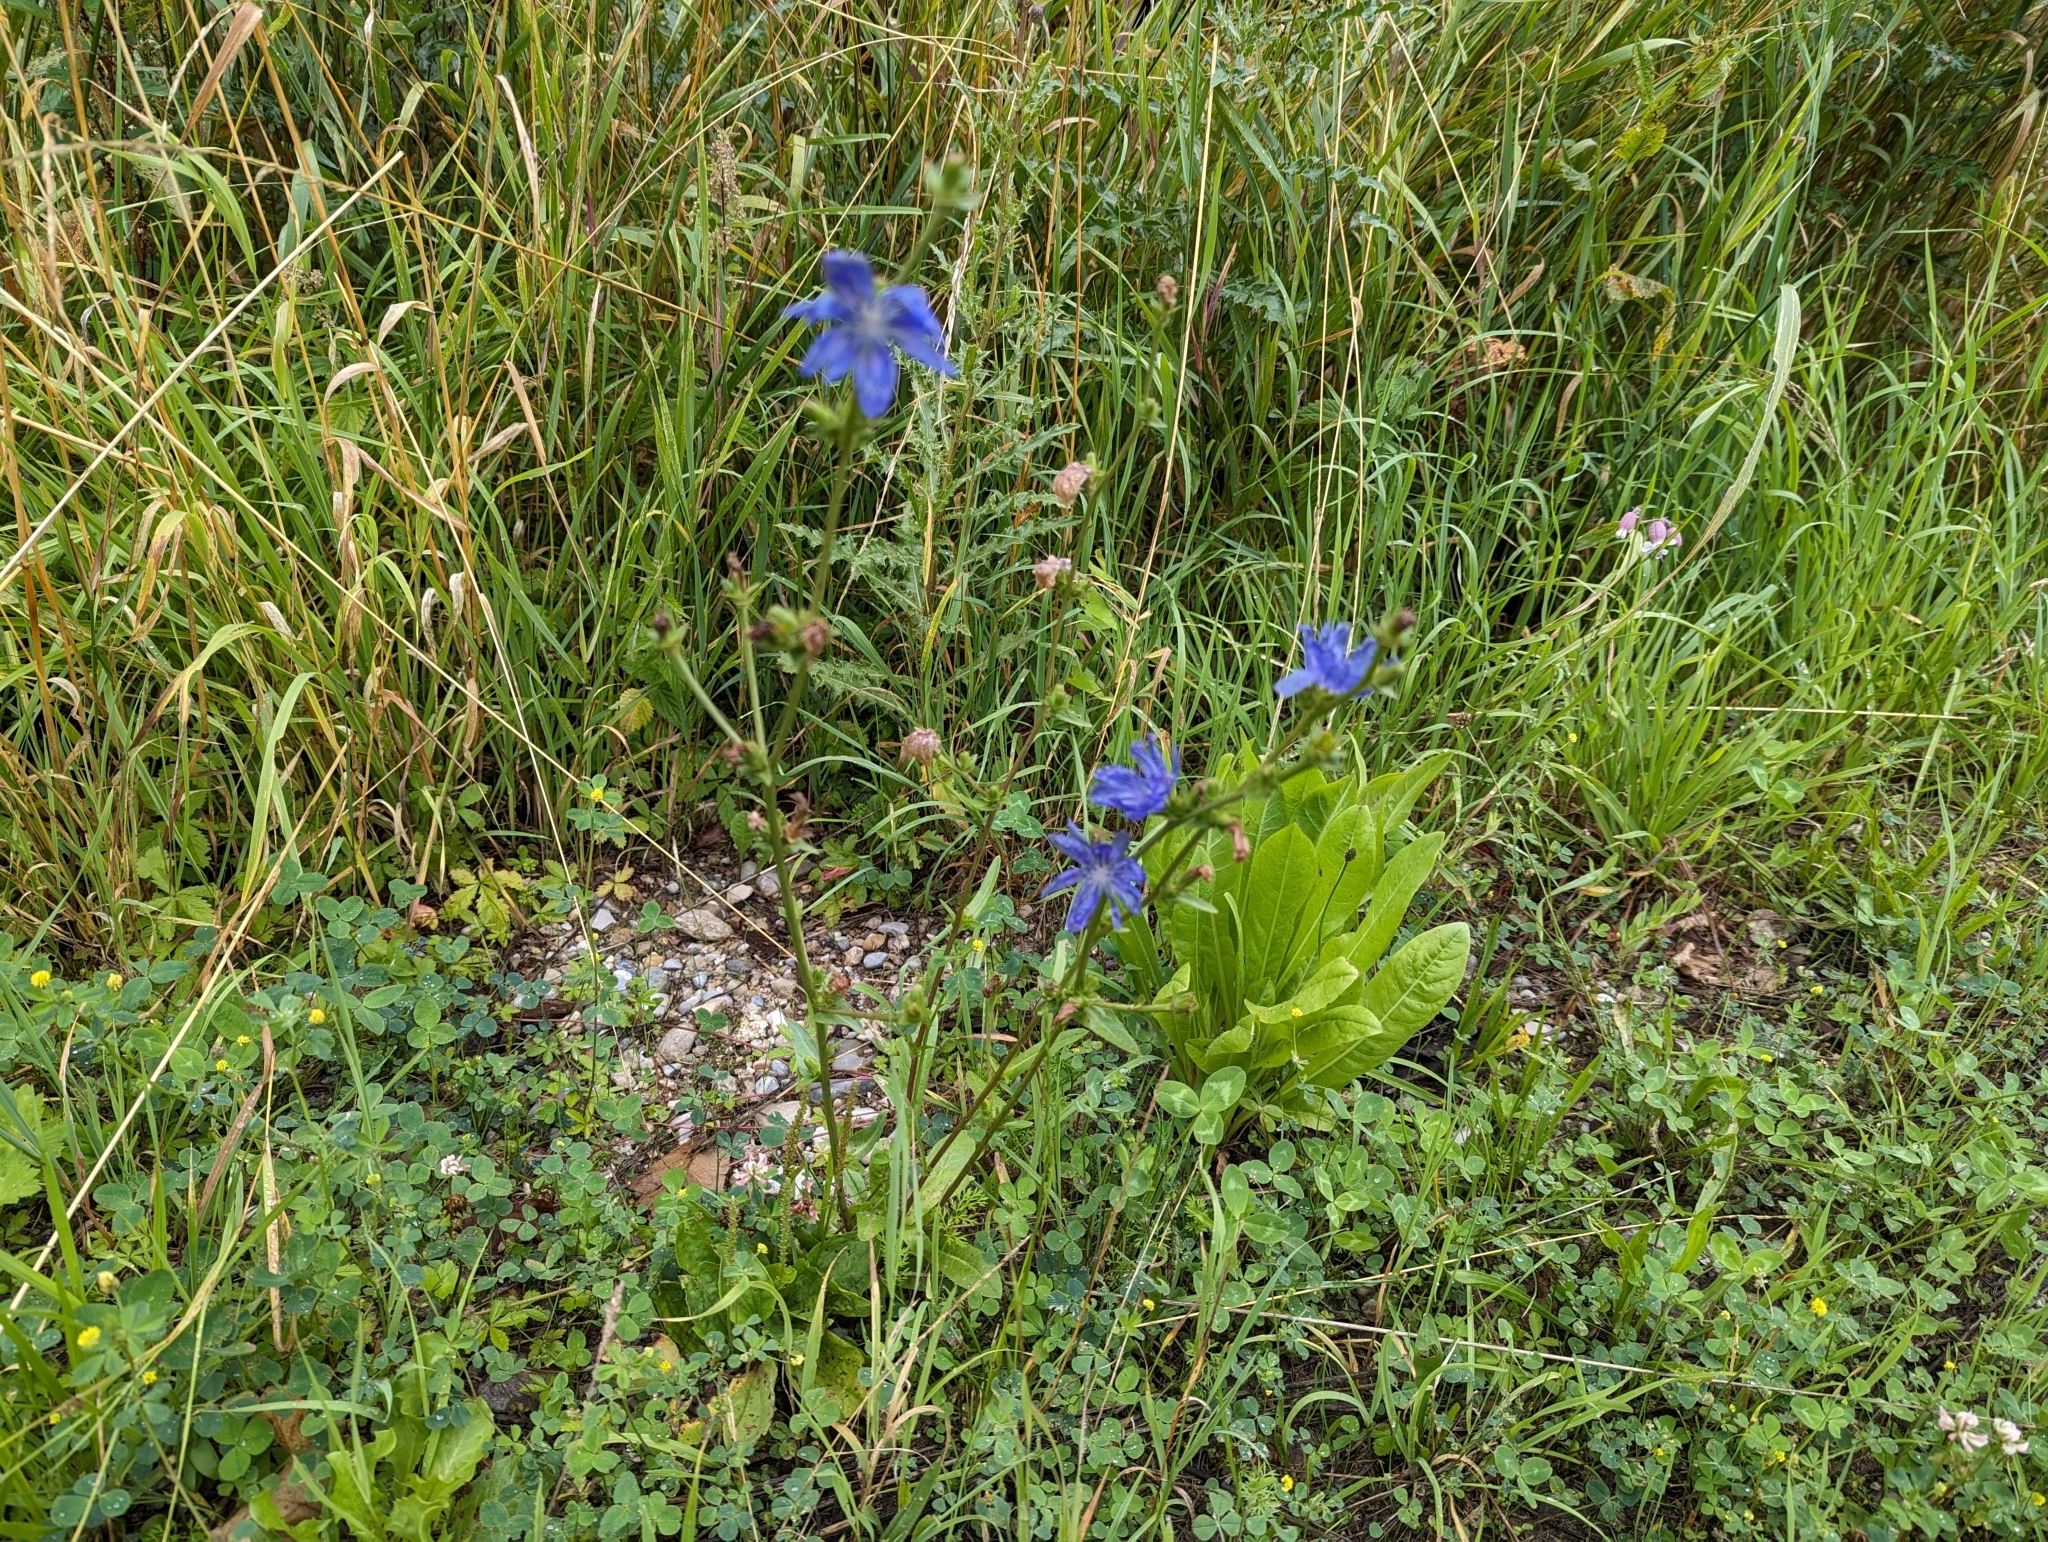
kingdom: Plantae
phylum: Tracheophyta
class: Magnoliopsida
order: Asterales
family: Asteraceae
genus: Cichorium
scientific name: Cichorium intybus
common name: Chicory
